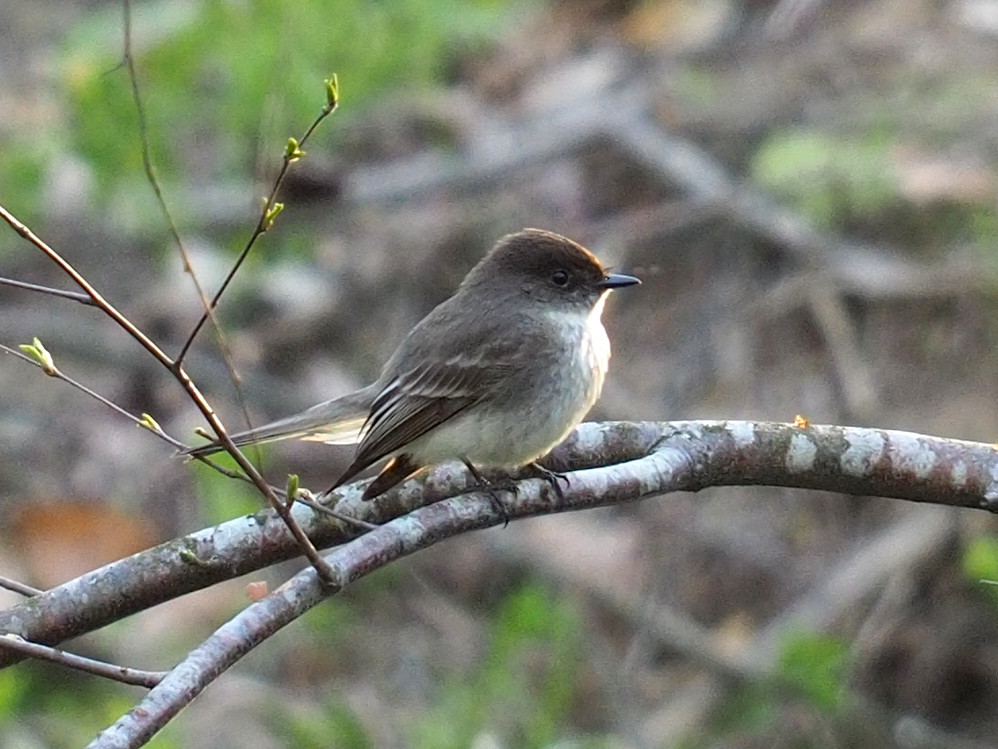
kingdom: Animalia
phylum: Chordata
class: Aves
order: Passeriformes
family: Tyrannidae
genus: Sayornis
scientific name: Sayornis phoebe
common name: Eastern phoebe
